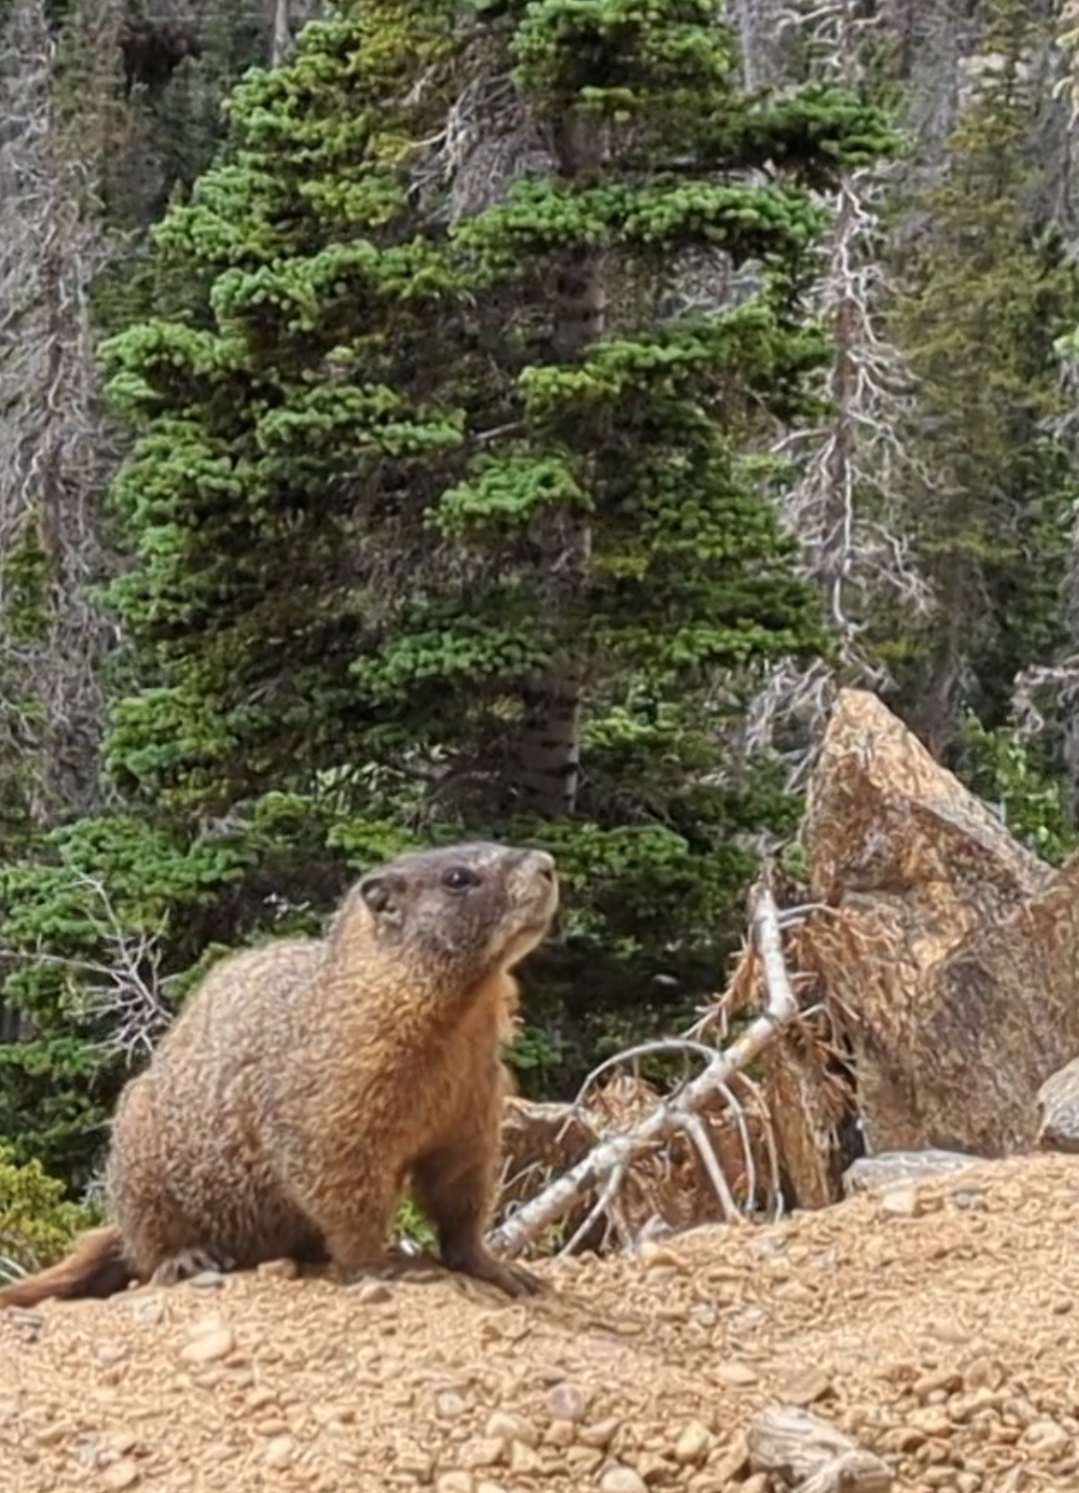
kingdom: Animalia
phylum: Chordata
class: Mammalia
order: Rodentia
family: Sciuridae
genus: Marmota
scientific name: Marmota flaviventris
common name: Yellow-bellied marmot
